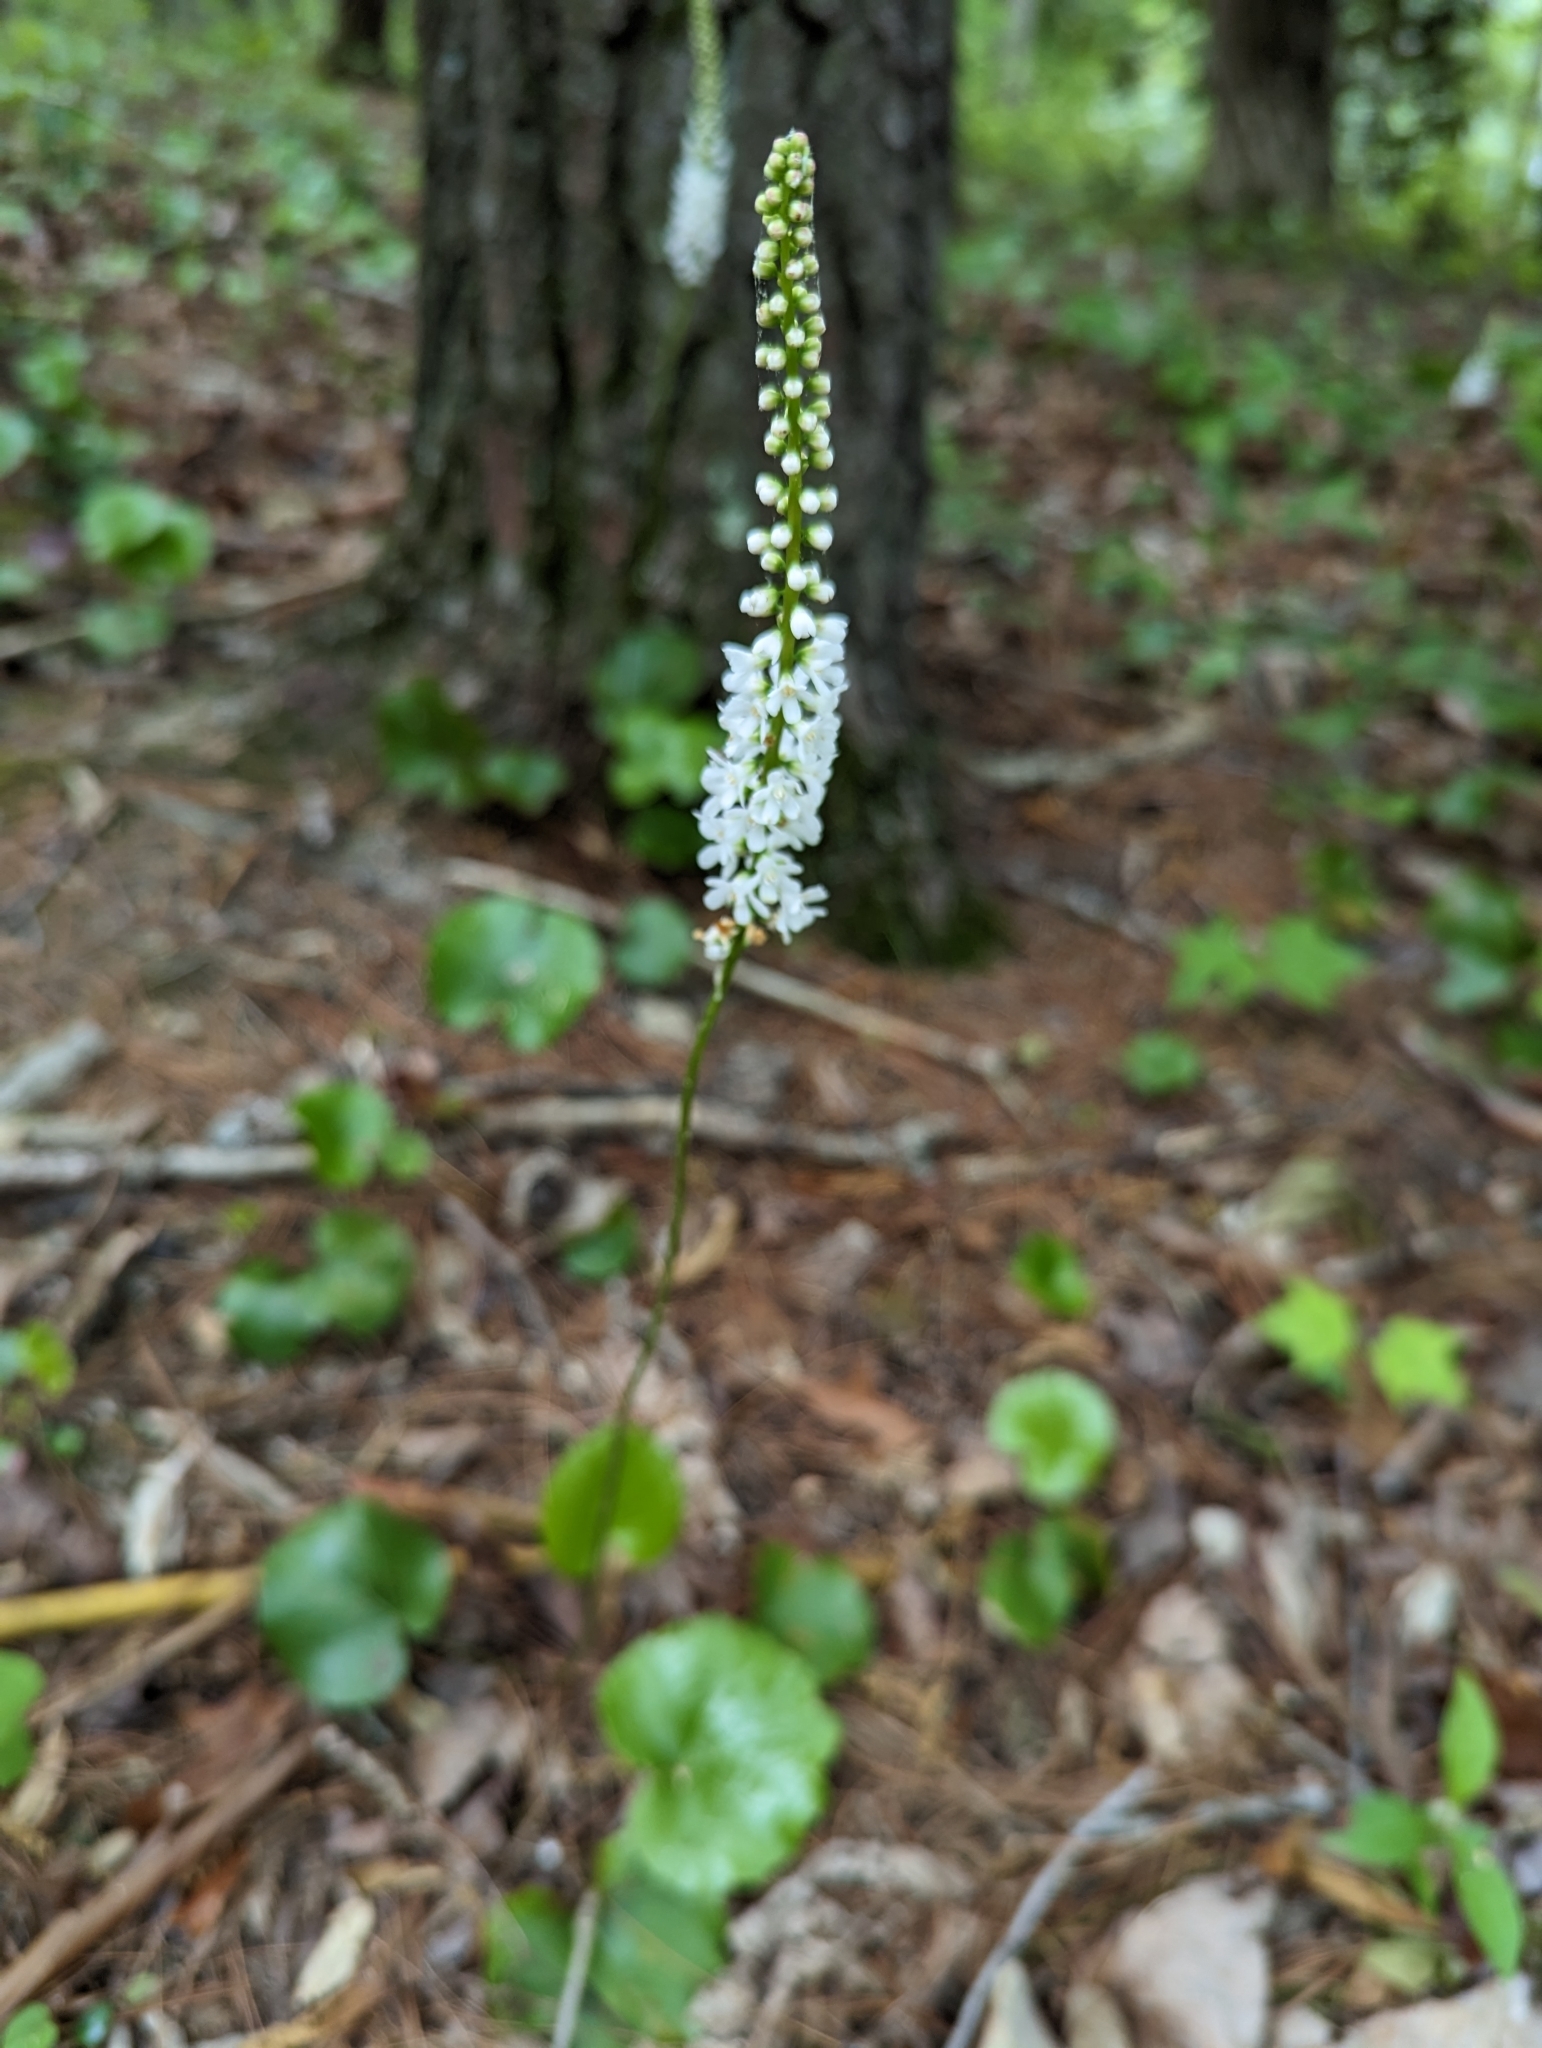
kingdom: Plantae
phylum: Tracheophyta
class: Magnoliopsida
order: Ericales
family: Diapensiaceae
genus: Galax
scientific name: Galax urceolata
